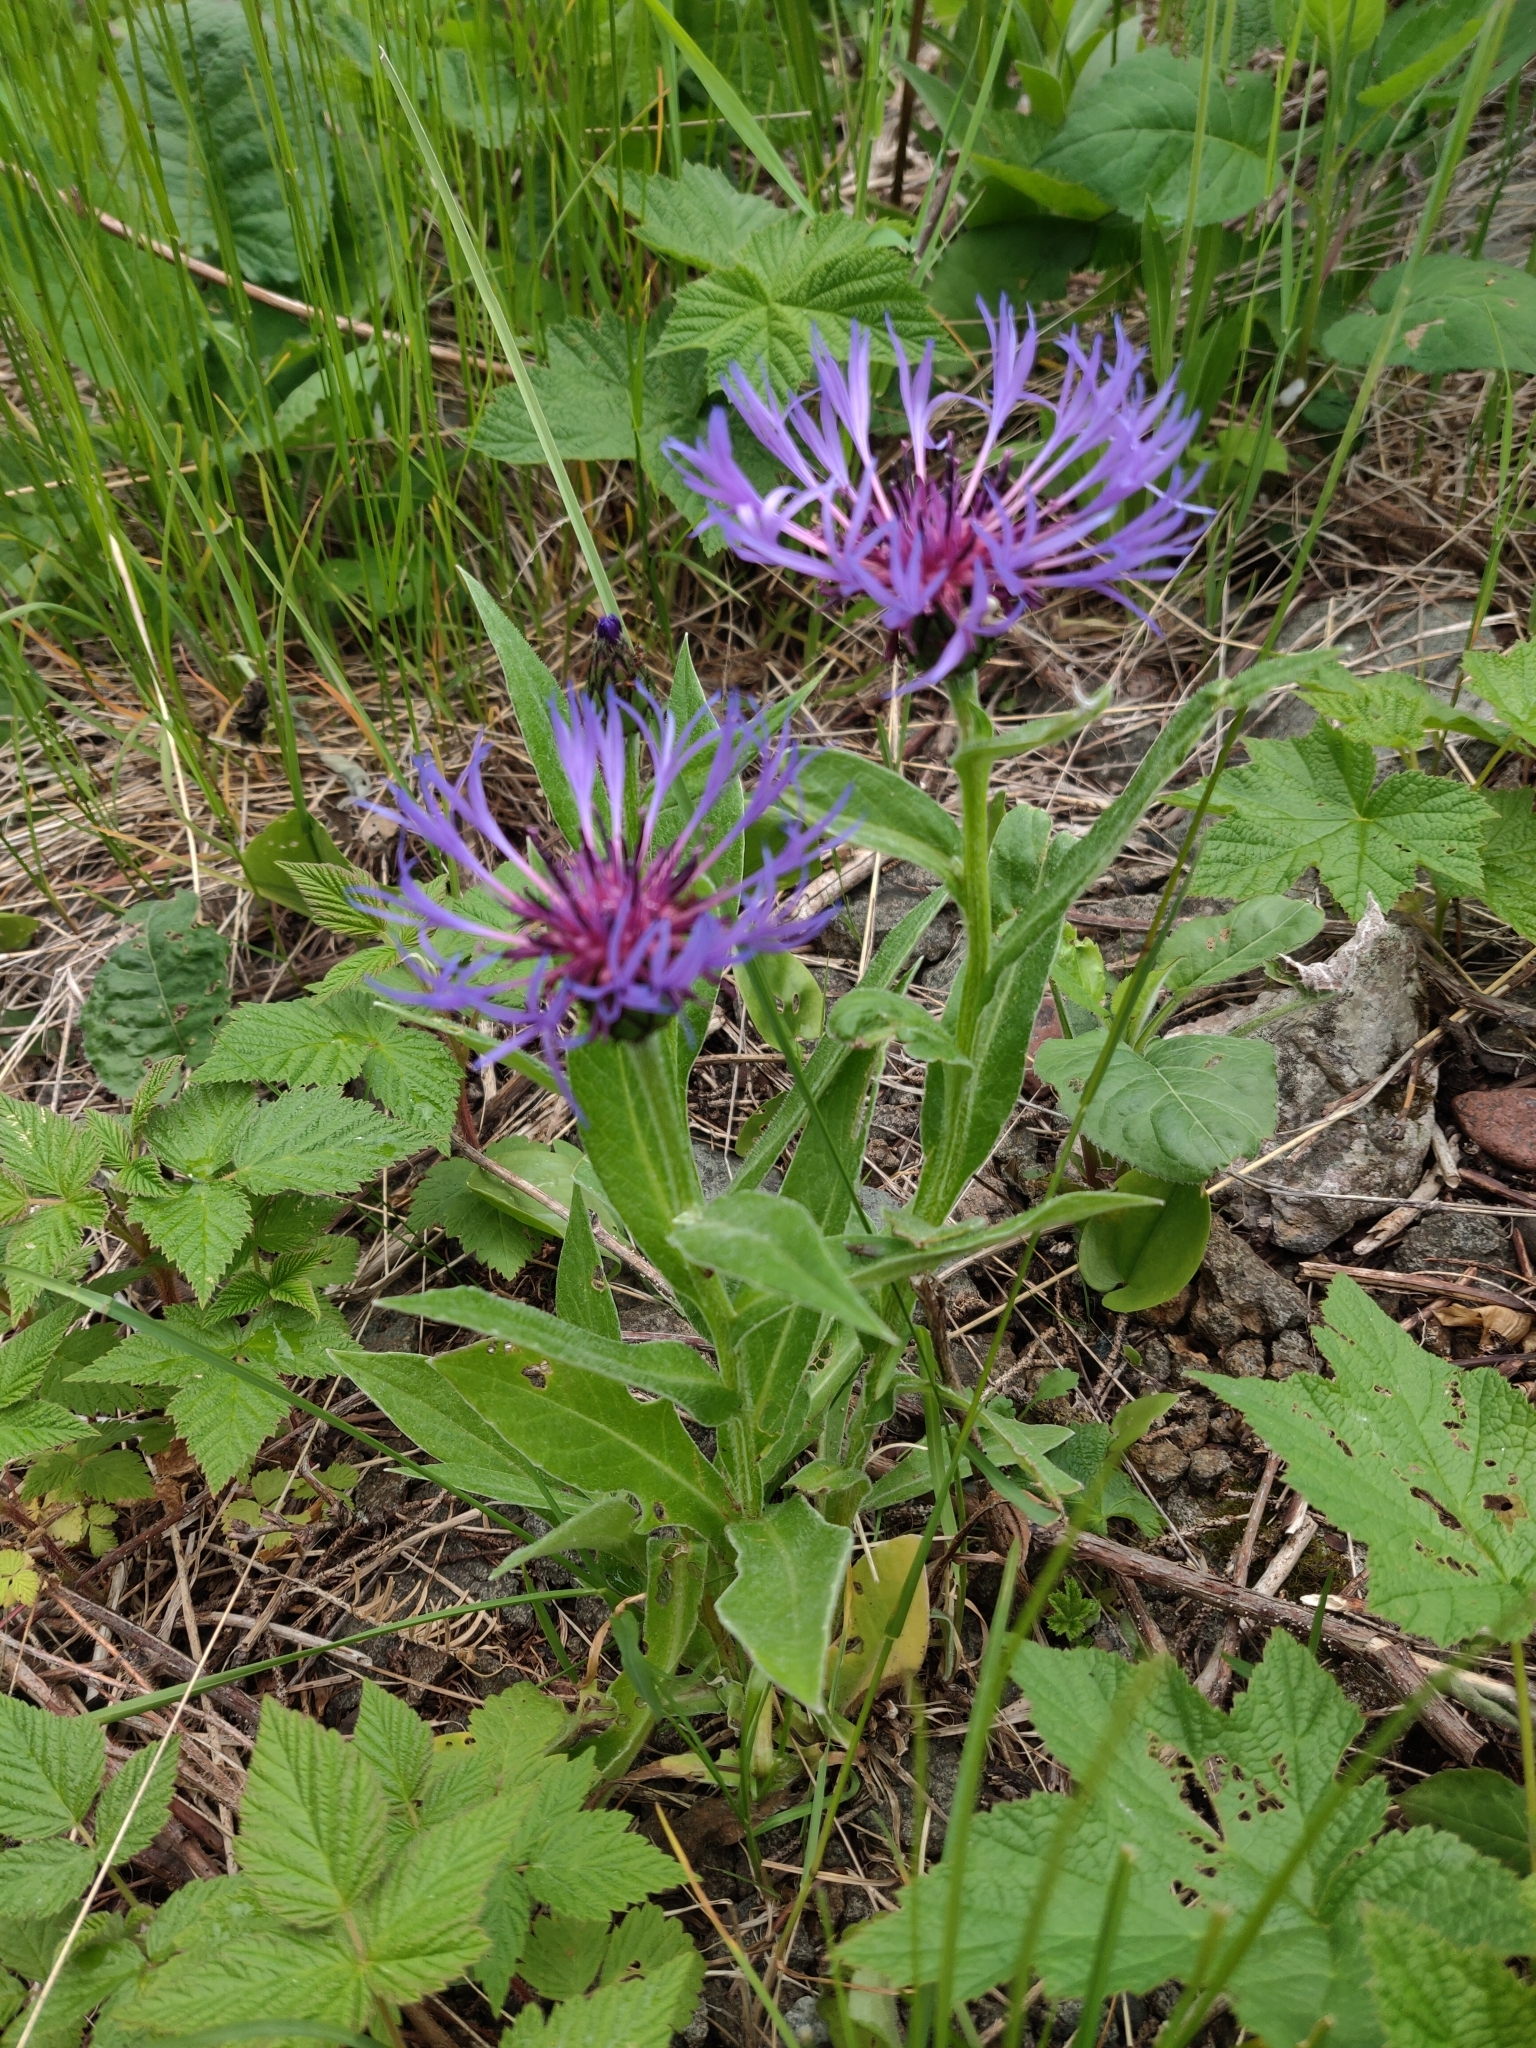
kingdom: Plantae
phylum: Tracheophyta
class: Magnoliopsida
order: Asterales
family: Asteraceae
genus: Centaurea
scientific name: Centaurea montana
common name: Perennial cornflower
